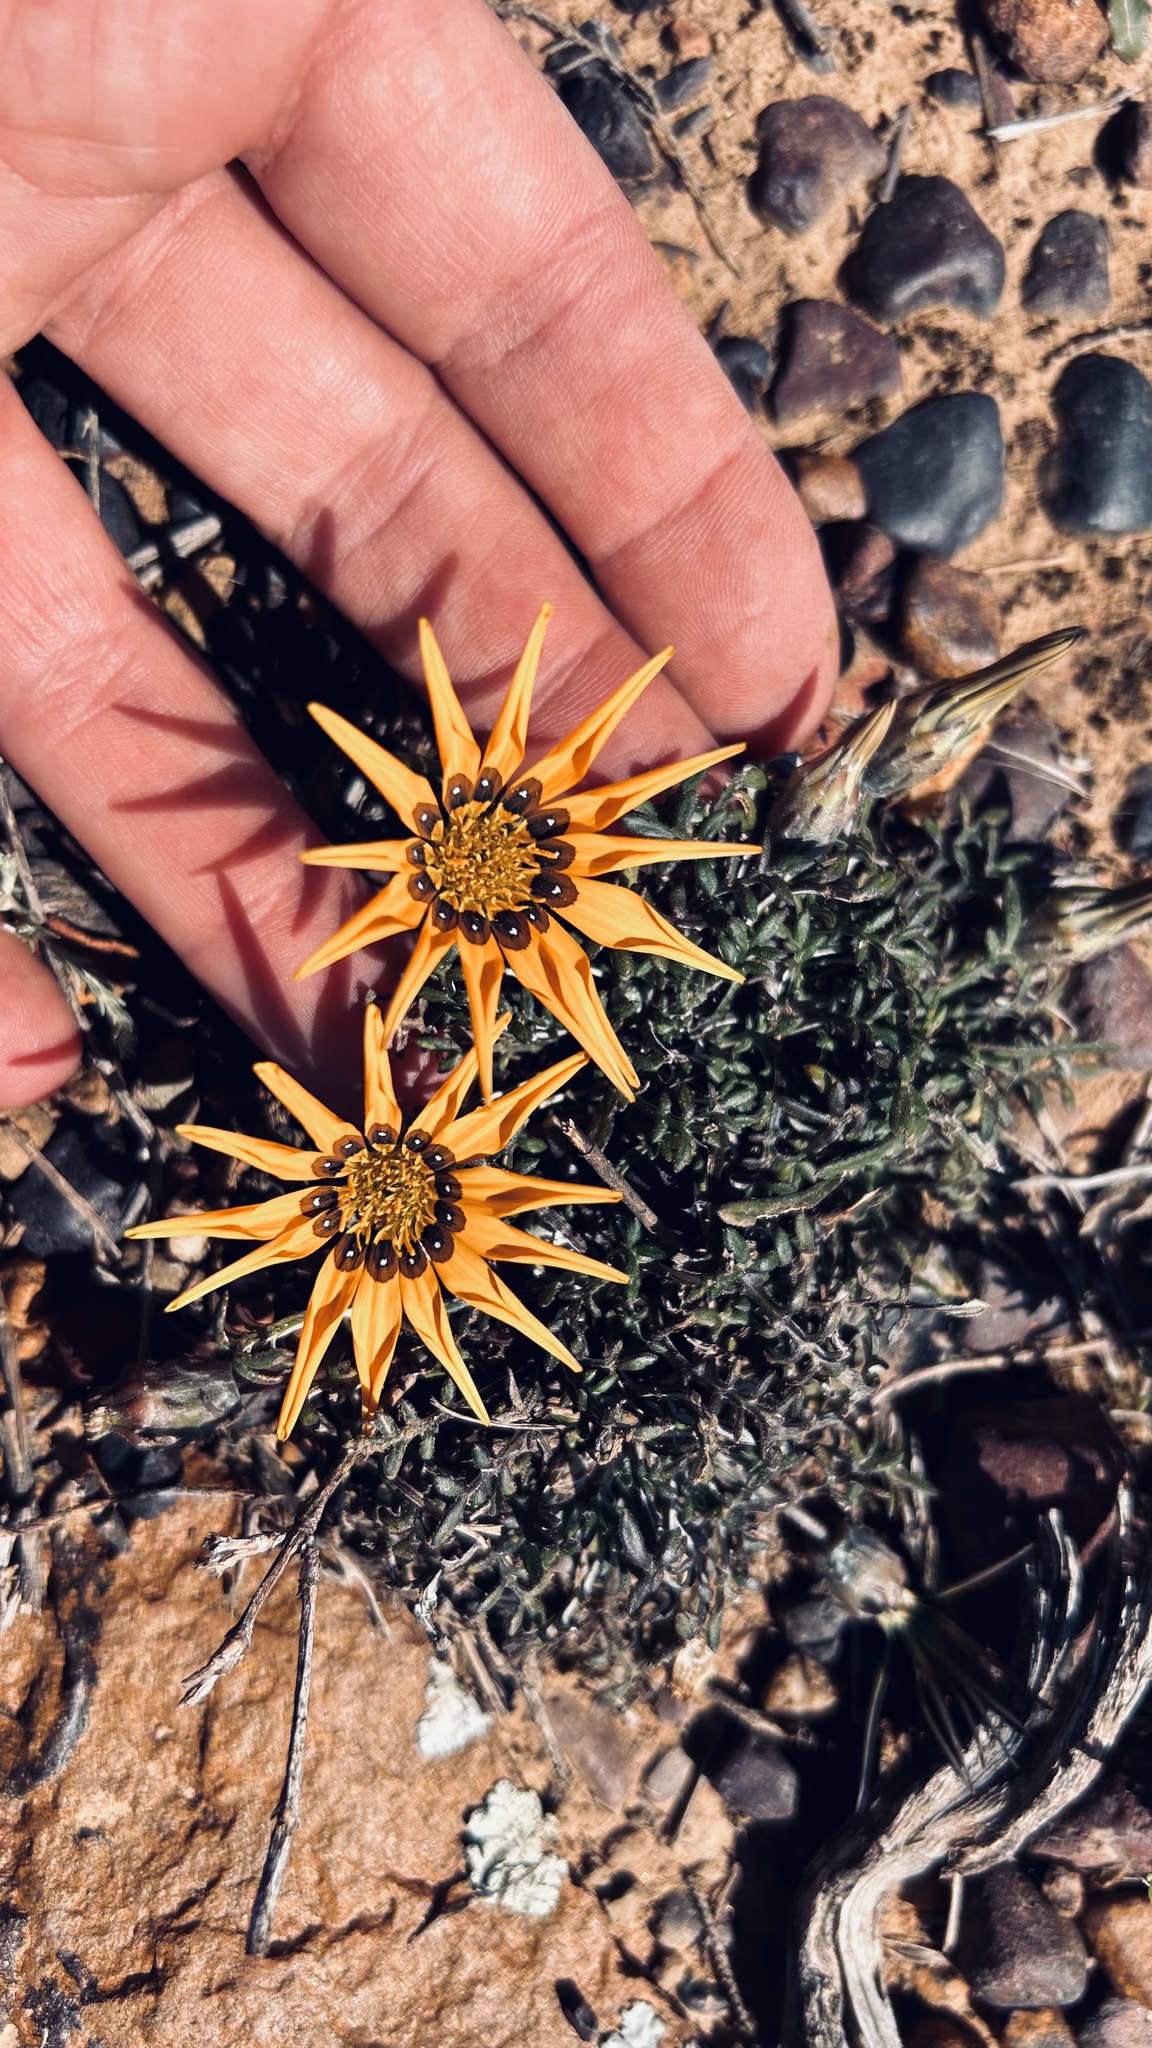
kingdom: Plantae
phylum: Tracheophyta
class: Magnoliopsida
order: Asterales
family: Asteraceae
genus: Gazania
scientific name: Gazania krebsiana
